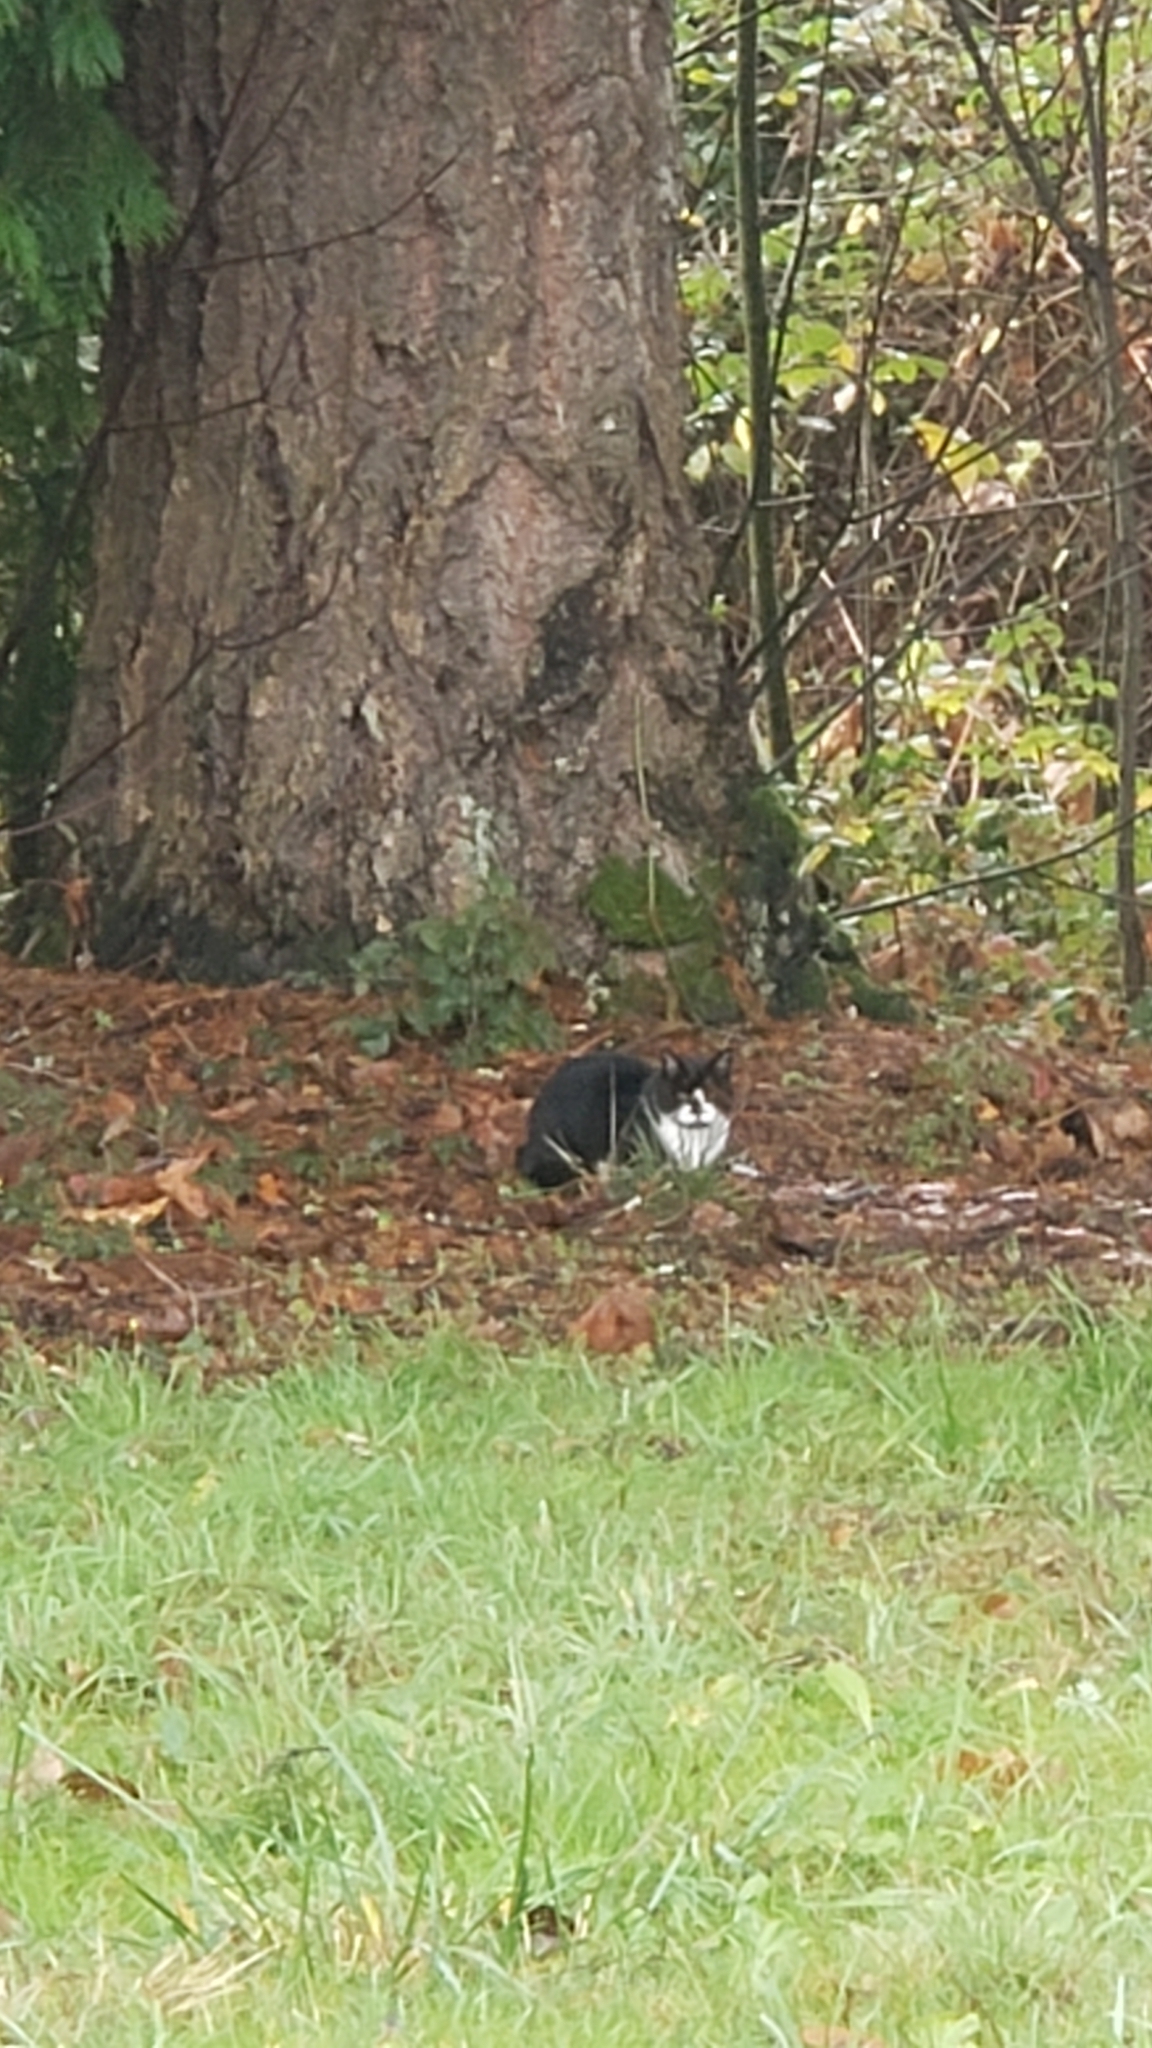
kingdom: Animalia
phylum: Chordata
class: Mammalia
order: Carnivora
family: Felidae
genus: Felis
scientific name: Felis catus
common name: Domestic cat
